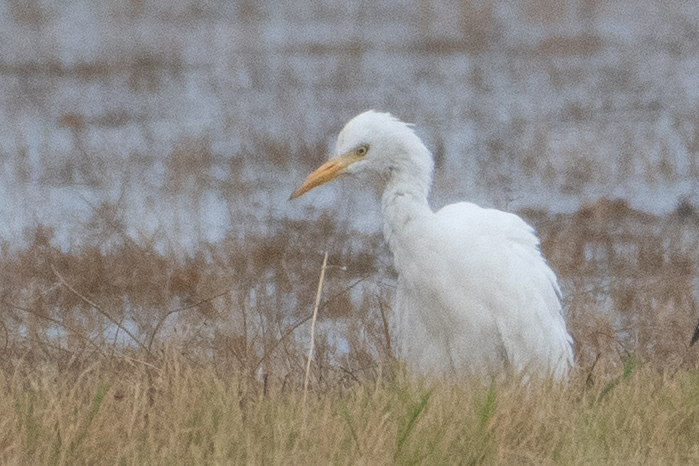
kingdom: Animalia
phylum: Chordata
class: Aves
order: Pelecaniformes
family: Ardeidae
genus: Bubulcus
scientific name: Bubulcus ibis
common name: Cattle egret
